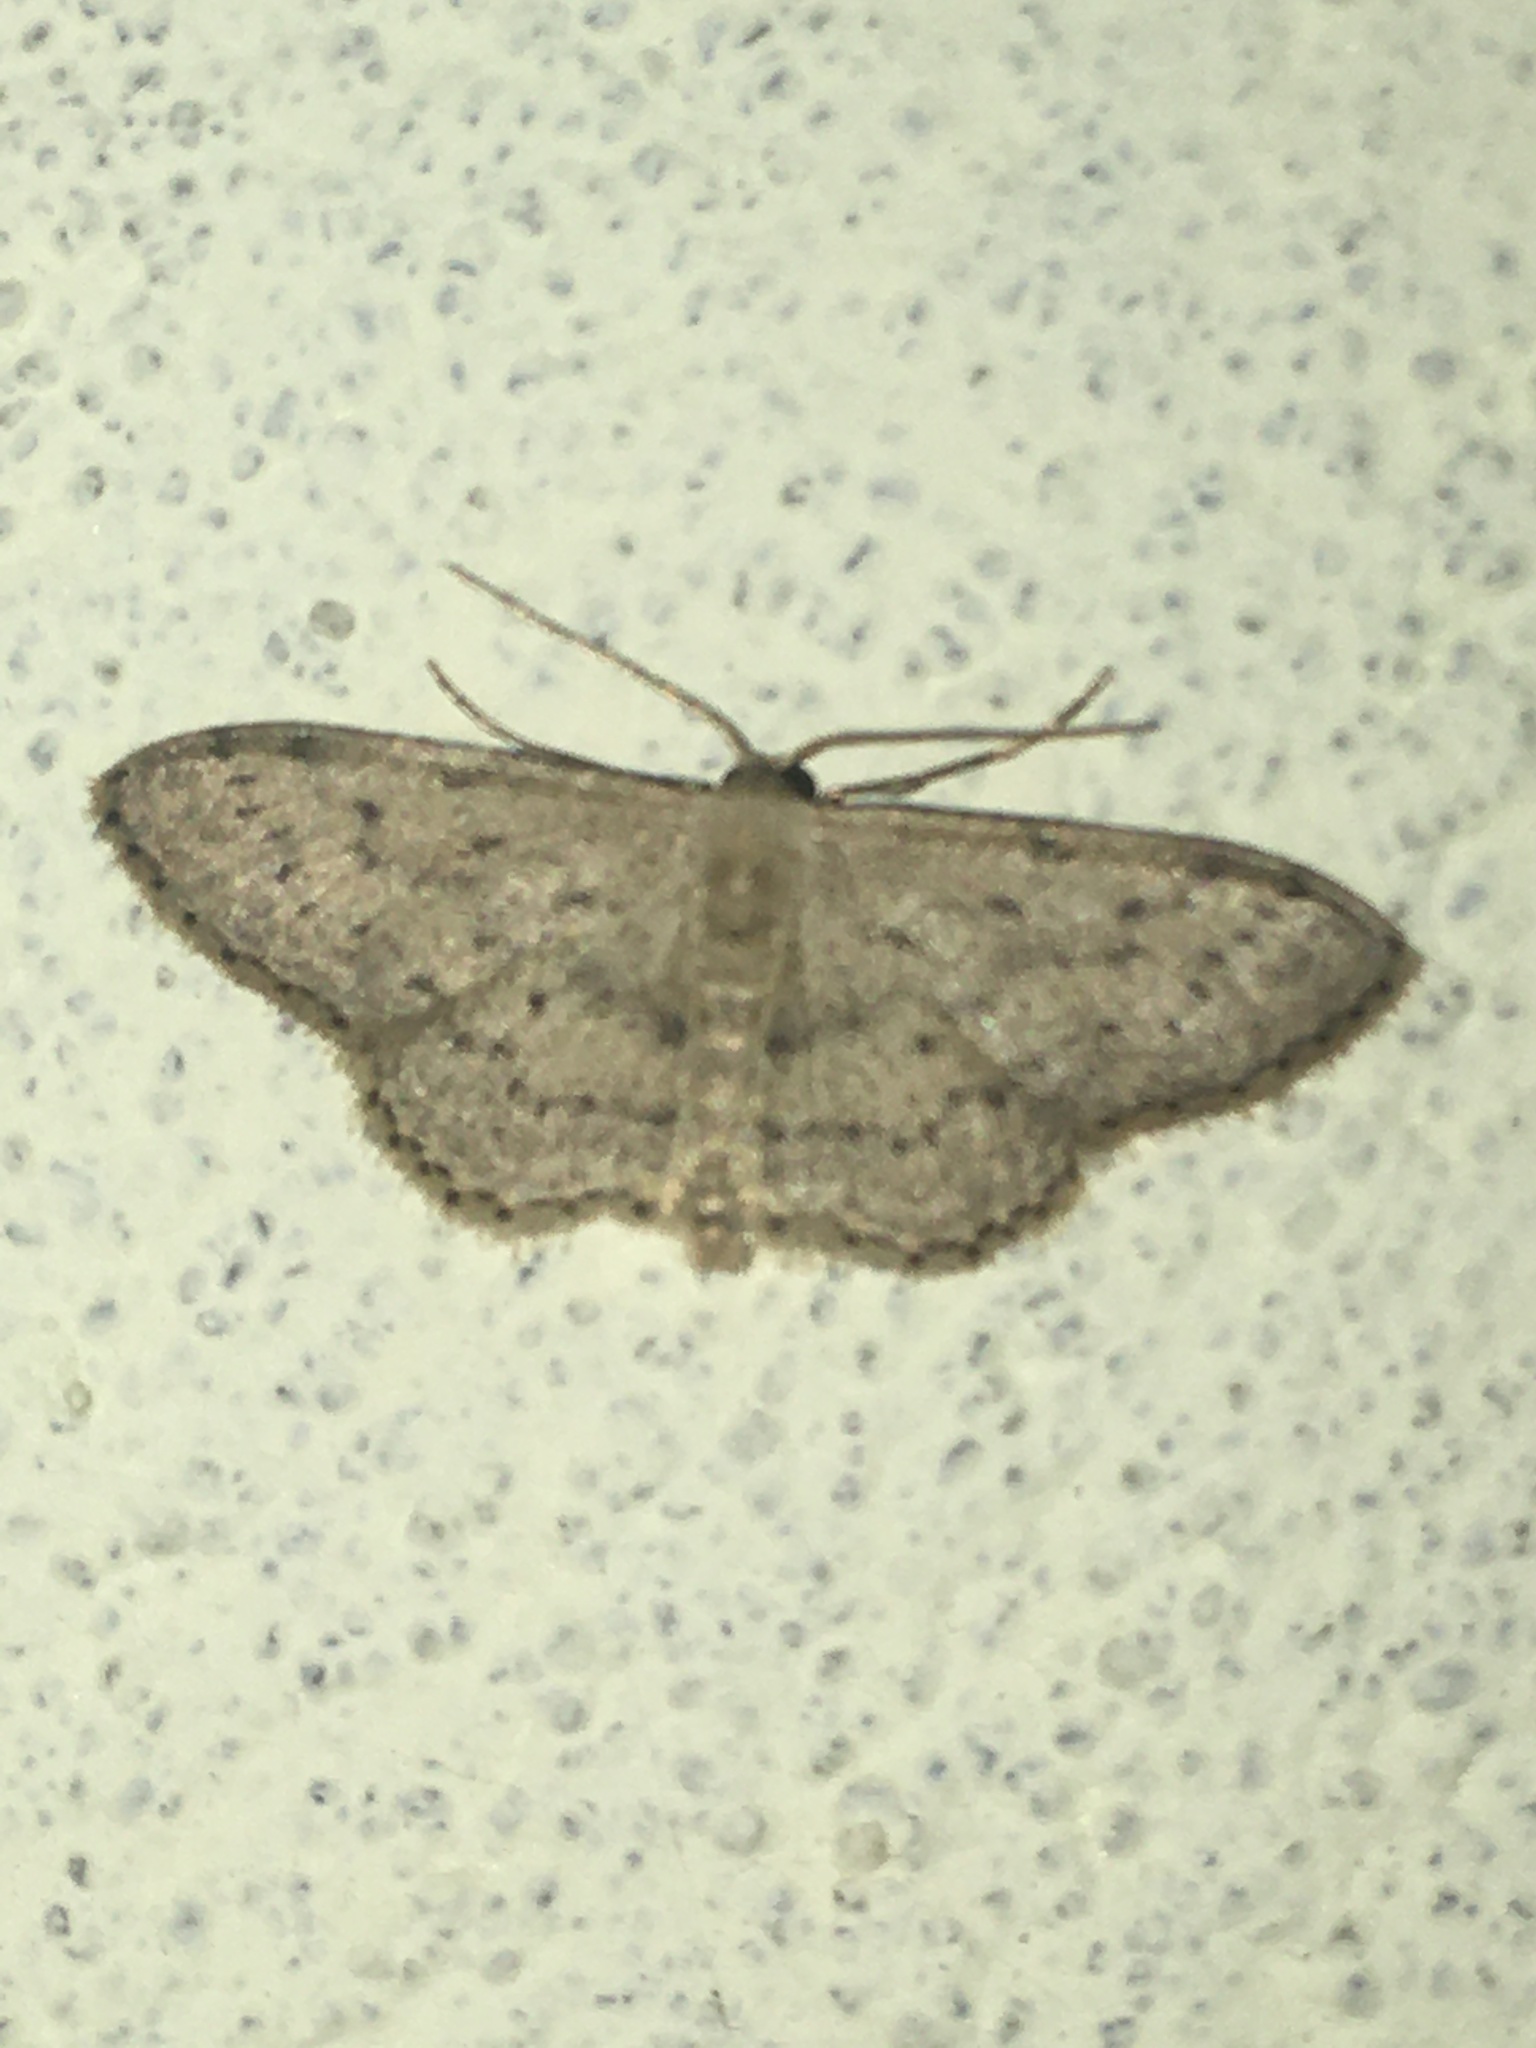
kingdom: Animalia
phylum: Arthropoda
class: Insecta
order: Lepidoptera
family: Geometridae
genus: Idaea
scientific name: Idaea seriata
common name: Small dusty wave
